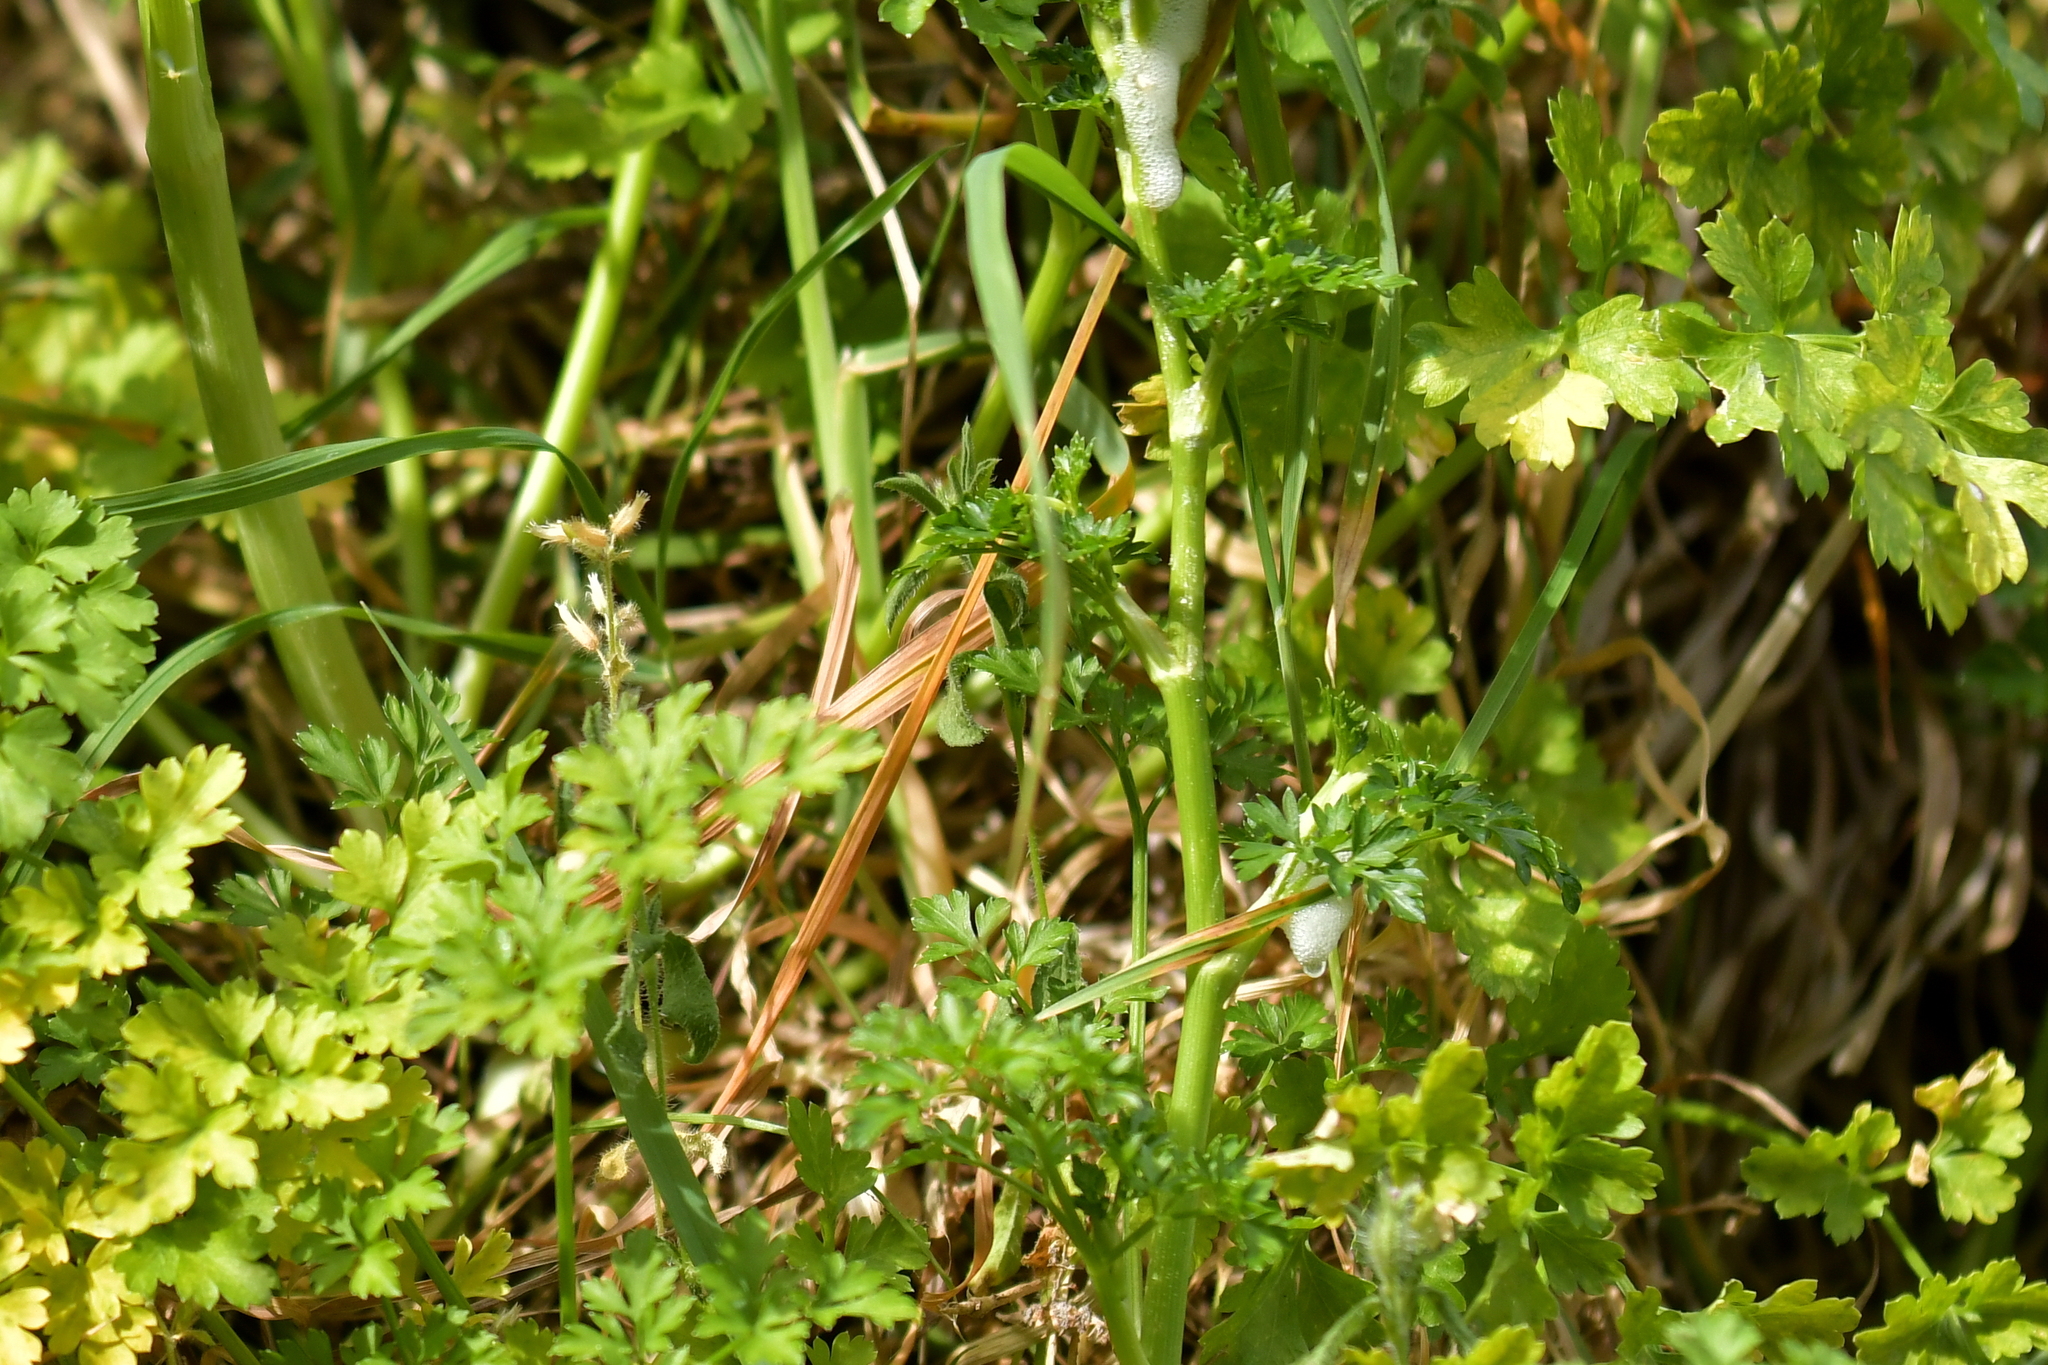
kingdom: Plantae
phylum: Tracheophyta
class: Magnoliopsida
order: Apiales
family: Apiaceae
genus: Petroselinum
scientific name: Petroselinum crispum
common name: Parsley
